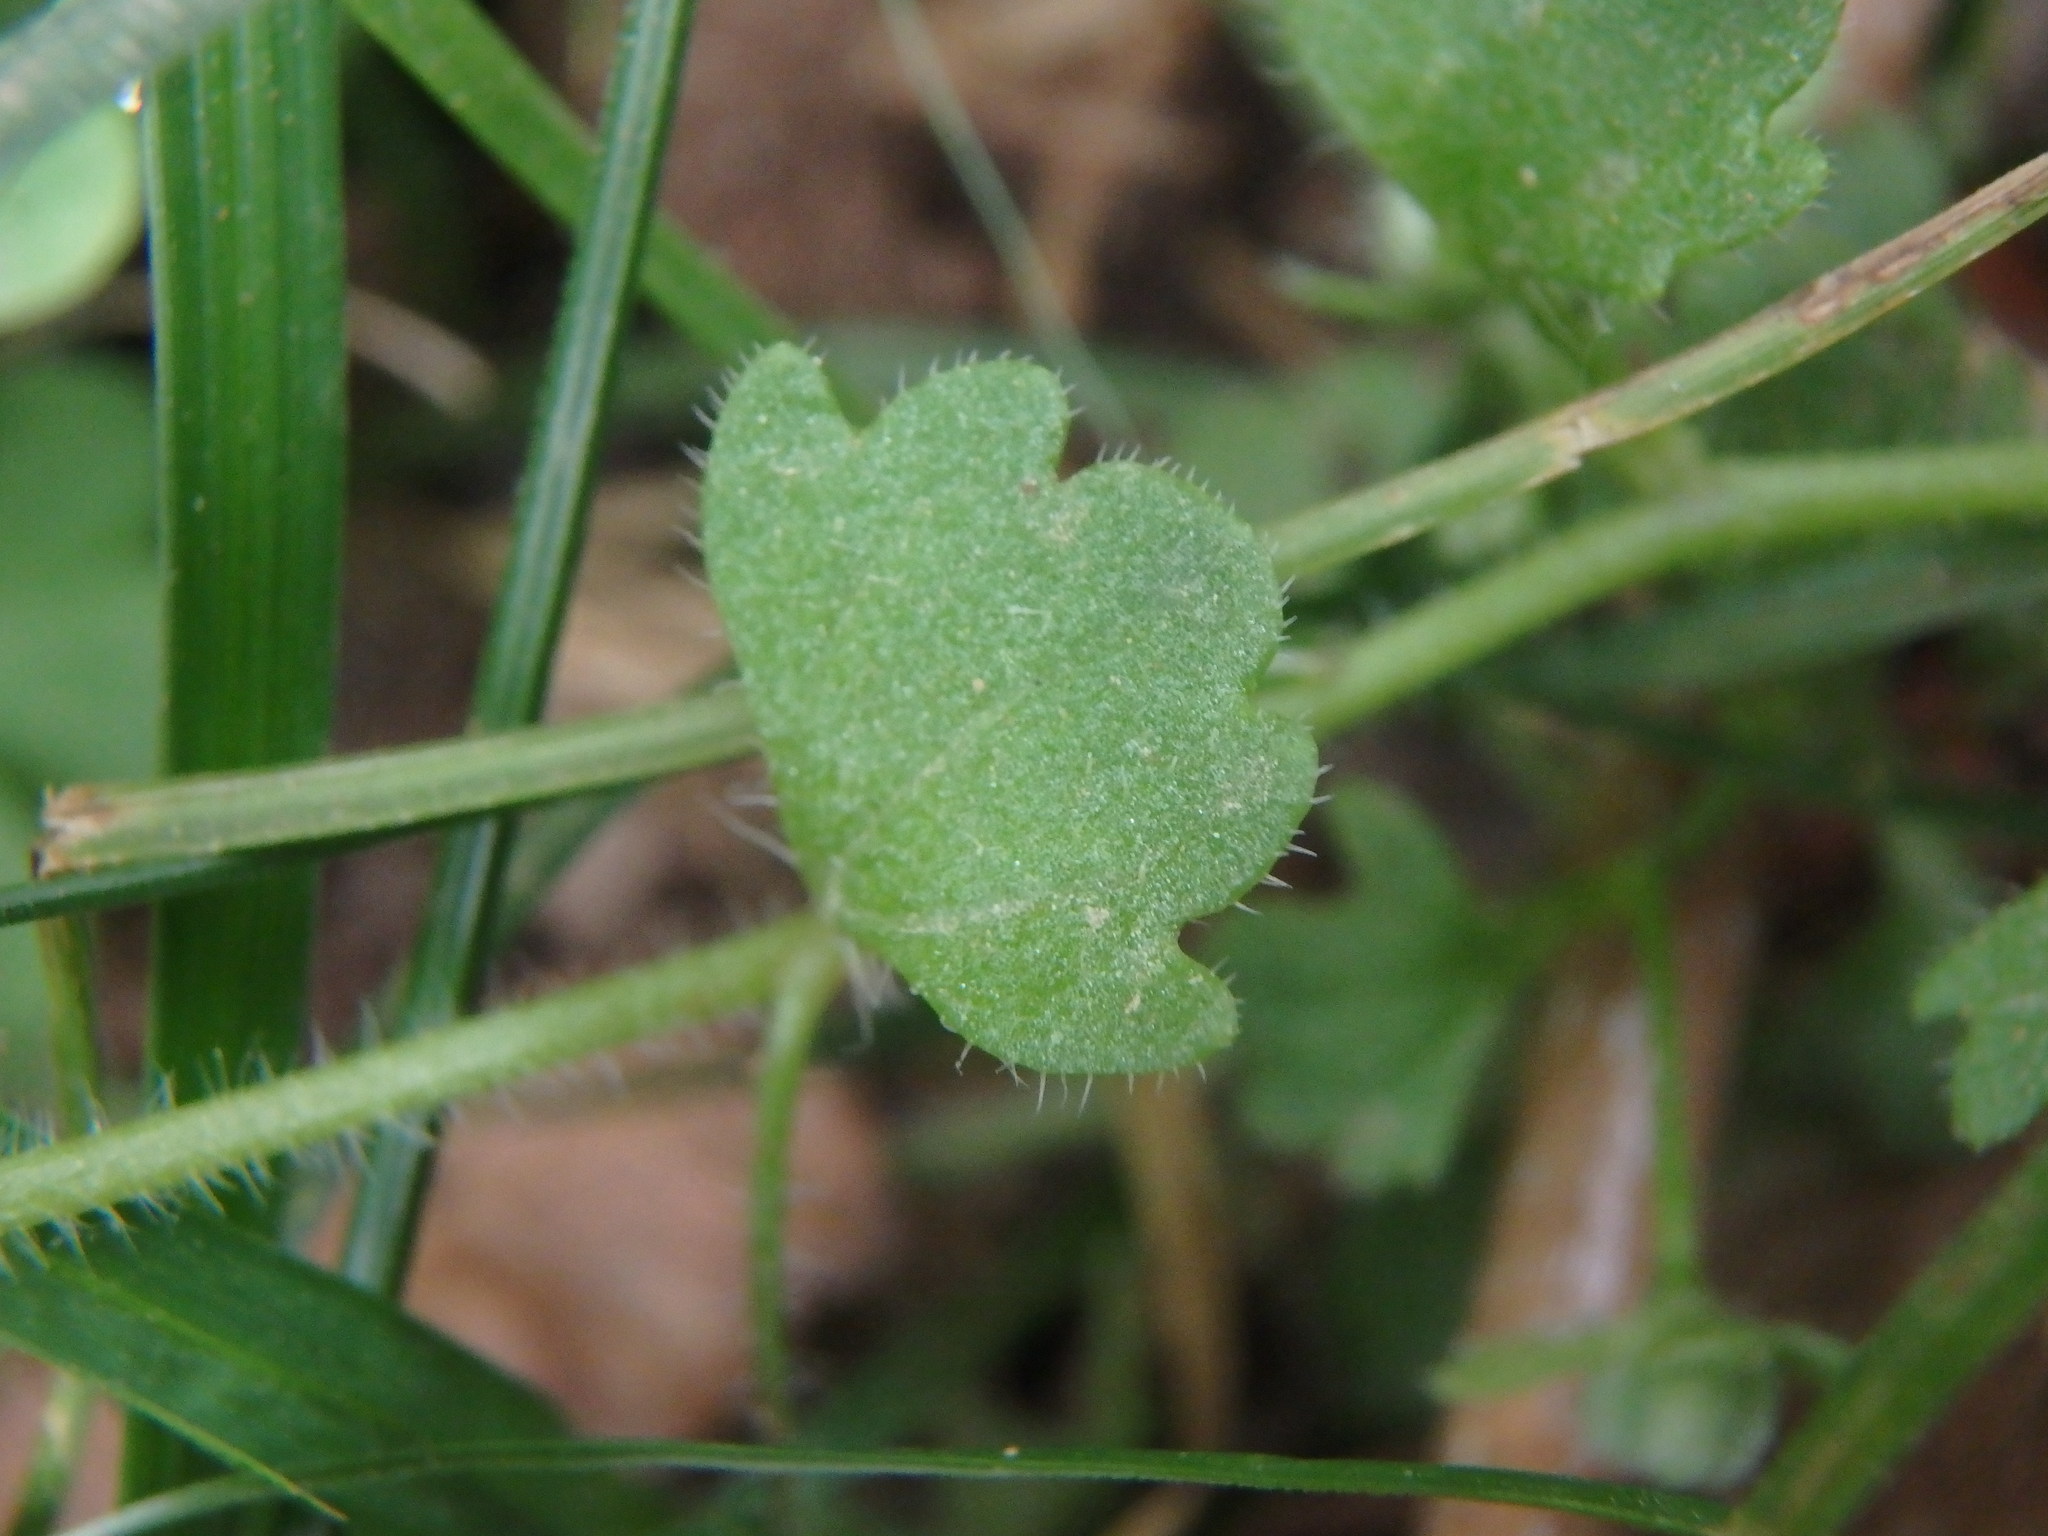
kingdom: Plantae
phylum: Tracheophyta
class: Magnoliopsida
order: Lamiales
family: Plantaginaceae
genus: Veronica
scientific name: Veronica cymbalaria
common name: Pale speedwell
